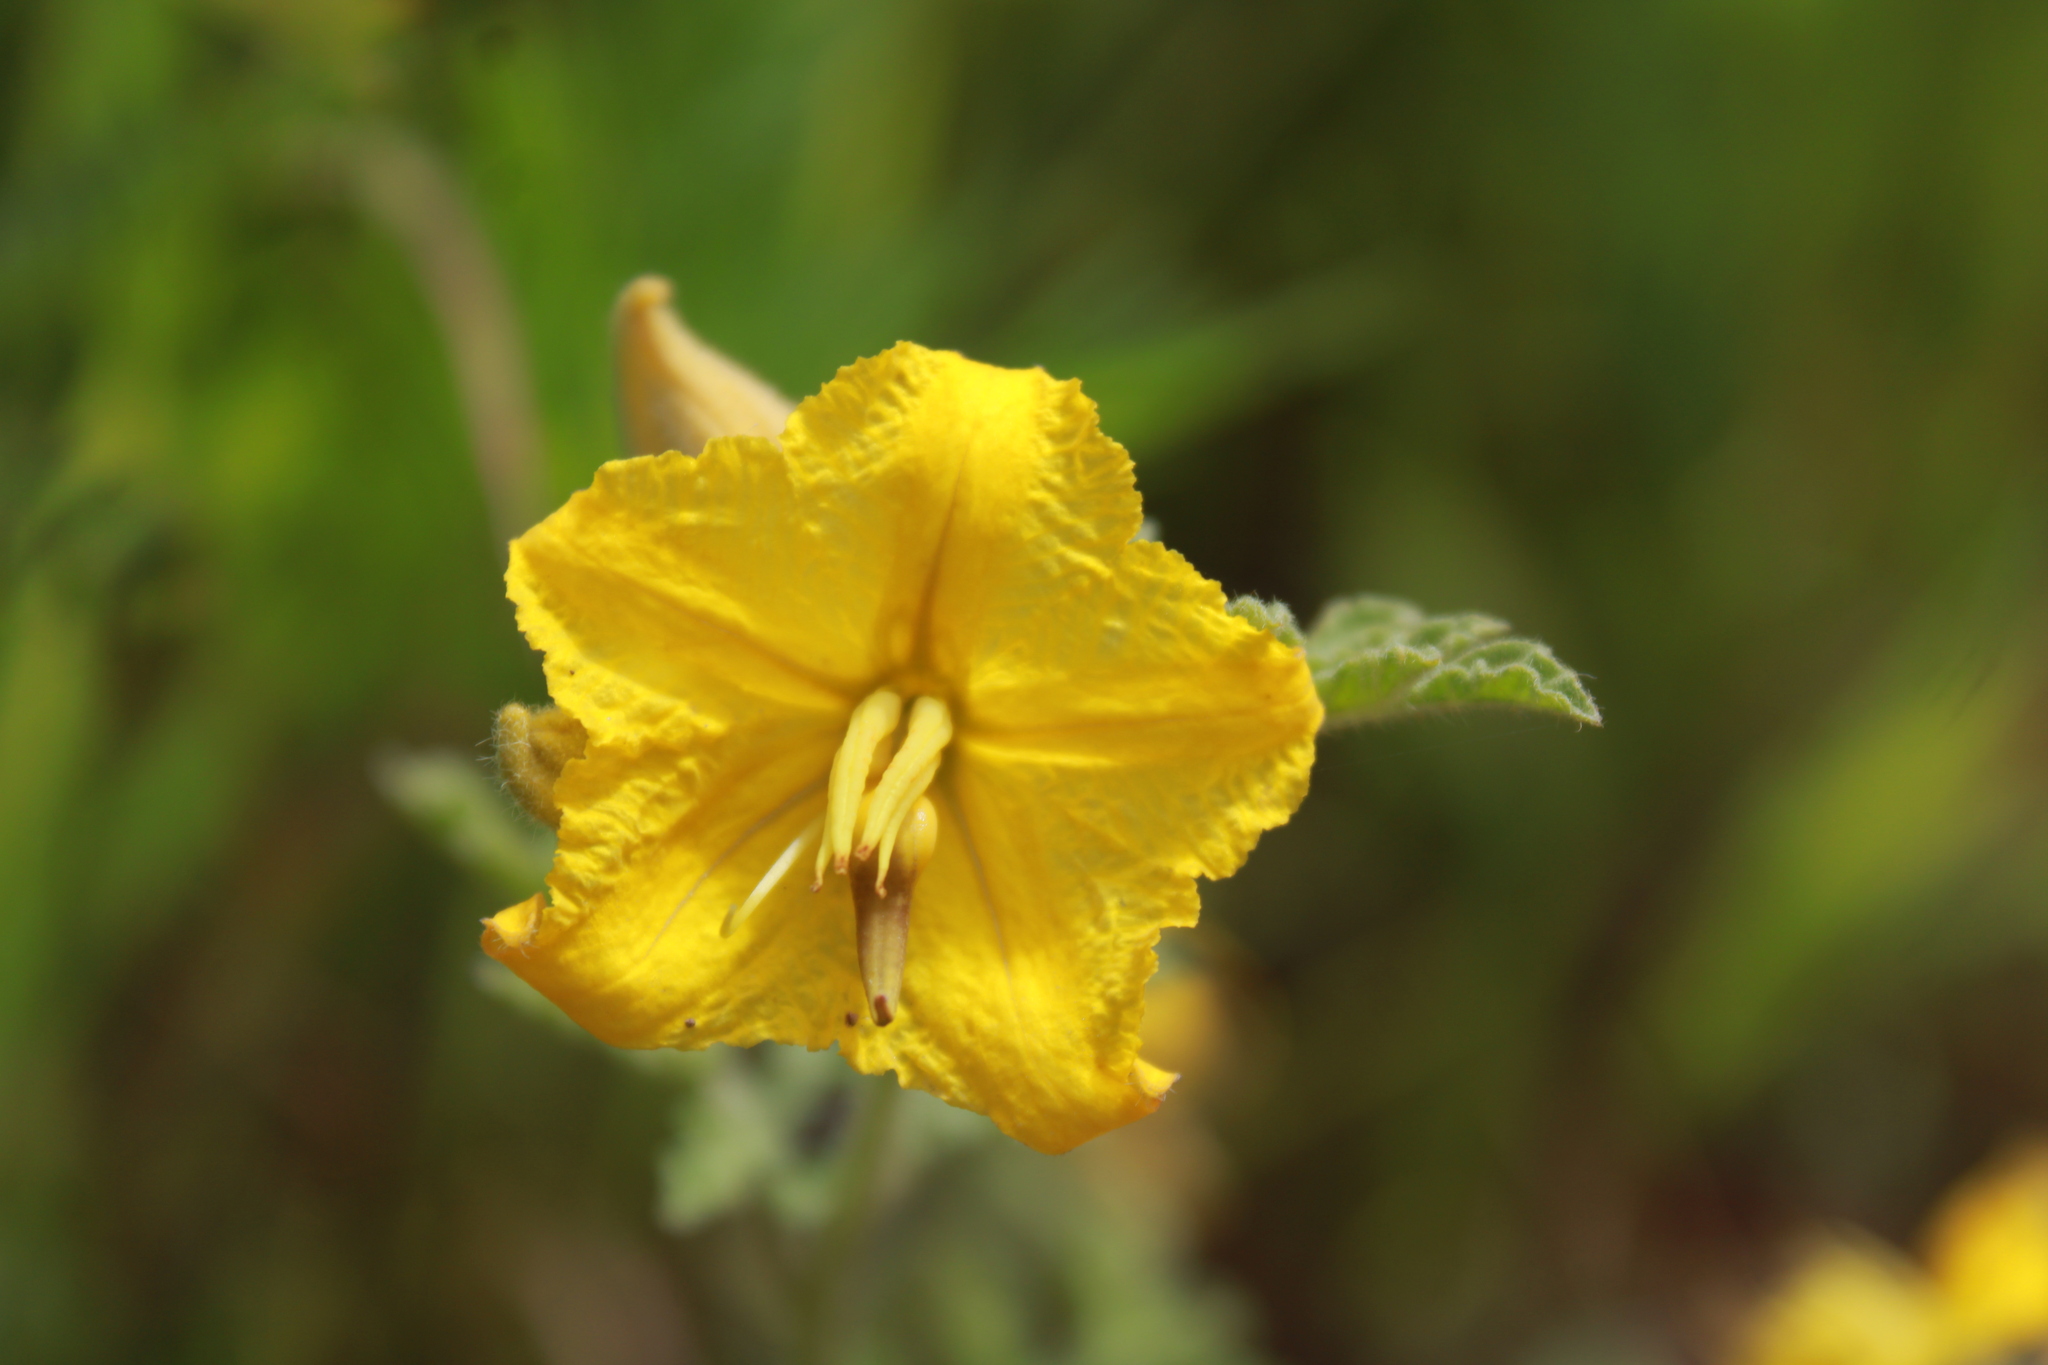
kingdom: Plantae
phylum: Tracheophyta
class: Magnoliopsida
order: Solanales
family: Solanaceae
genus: Solanum
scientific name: Solanum angustifolium
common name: Buffalobur nightshade
